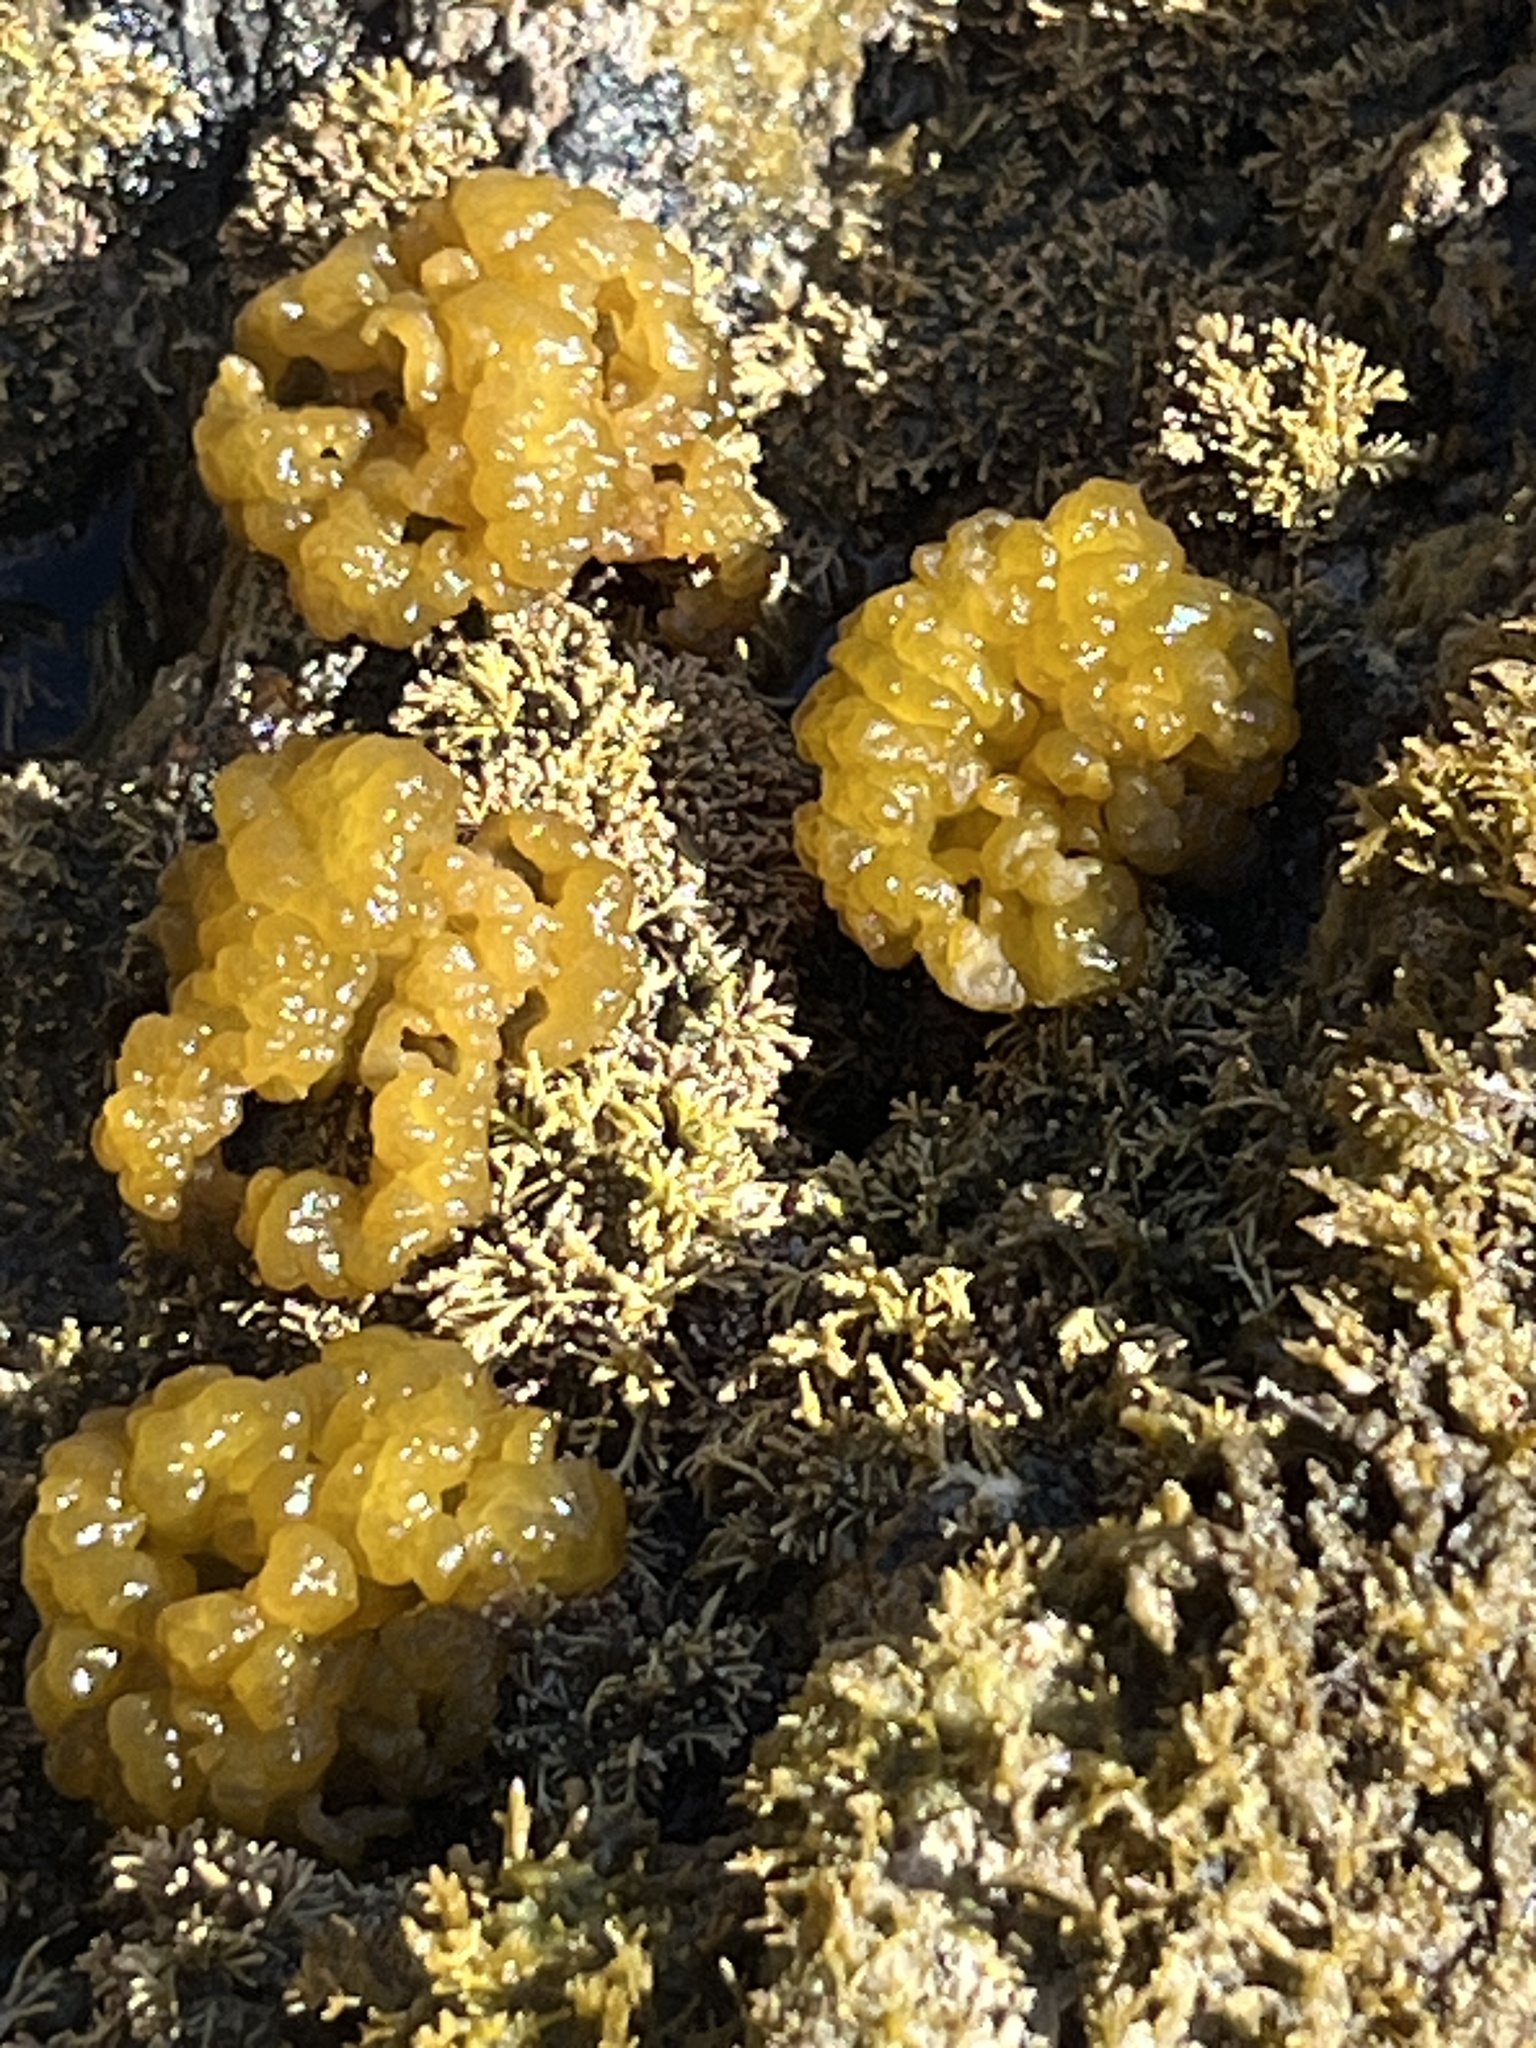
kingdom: Chromista
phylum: Ochrophyta
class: Phaeophyceae
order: Ectocarpales
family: Chordariaceae
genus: Leathesia
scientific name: Leathesia marina
